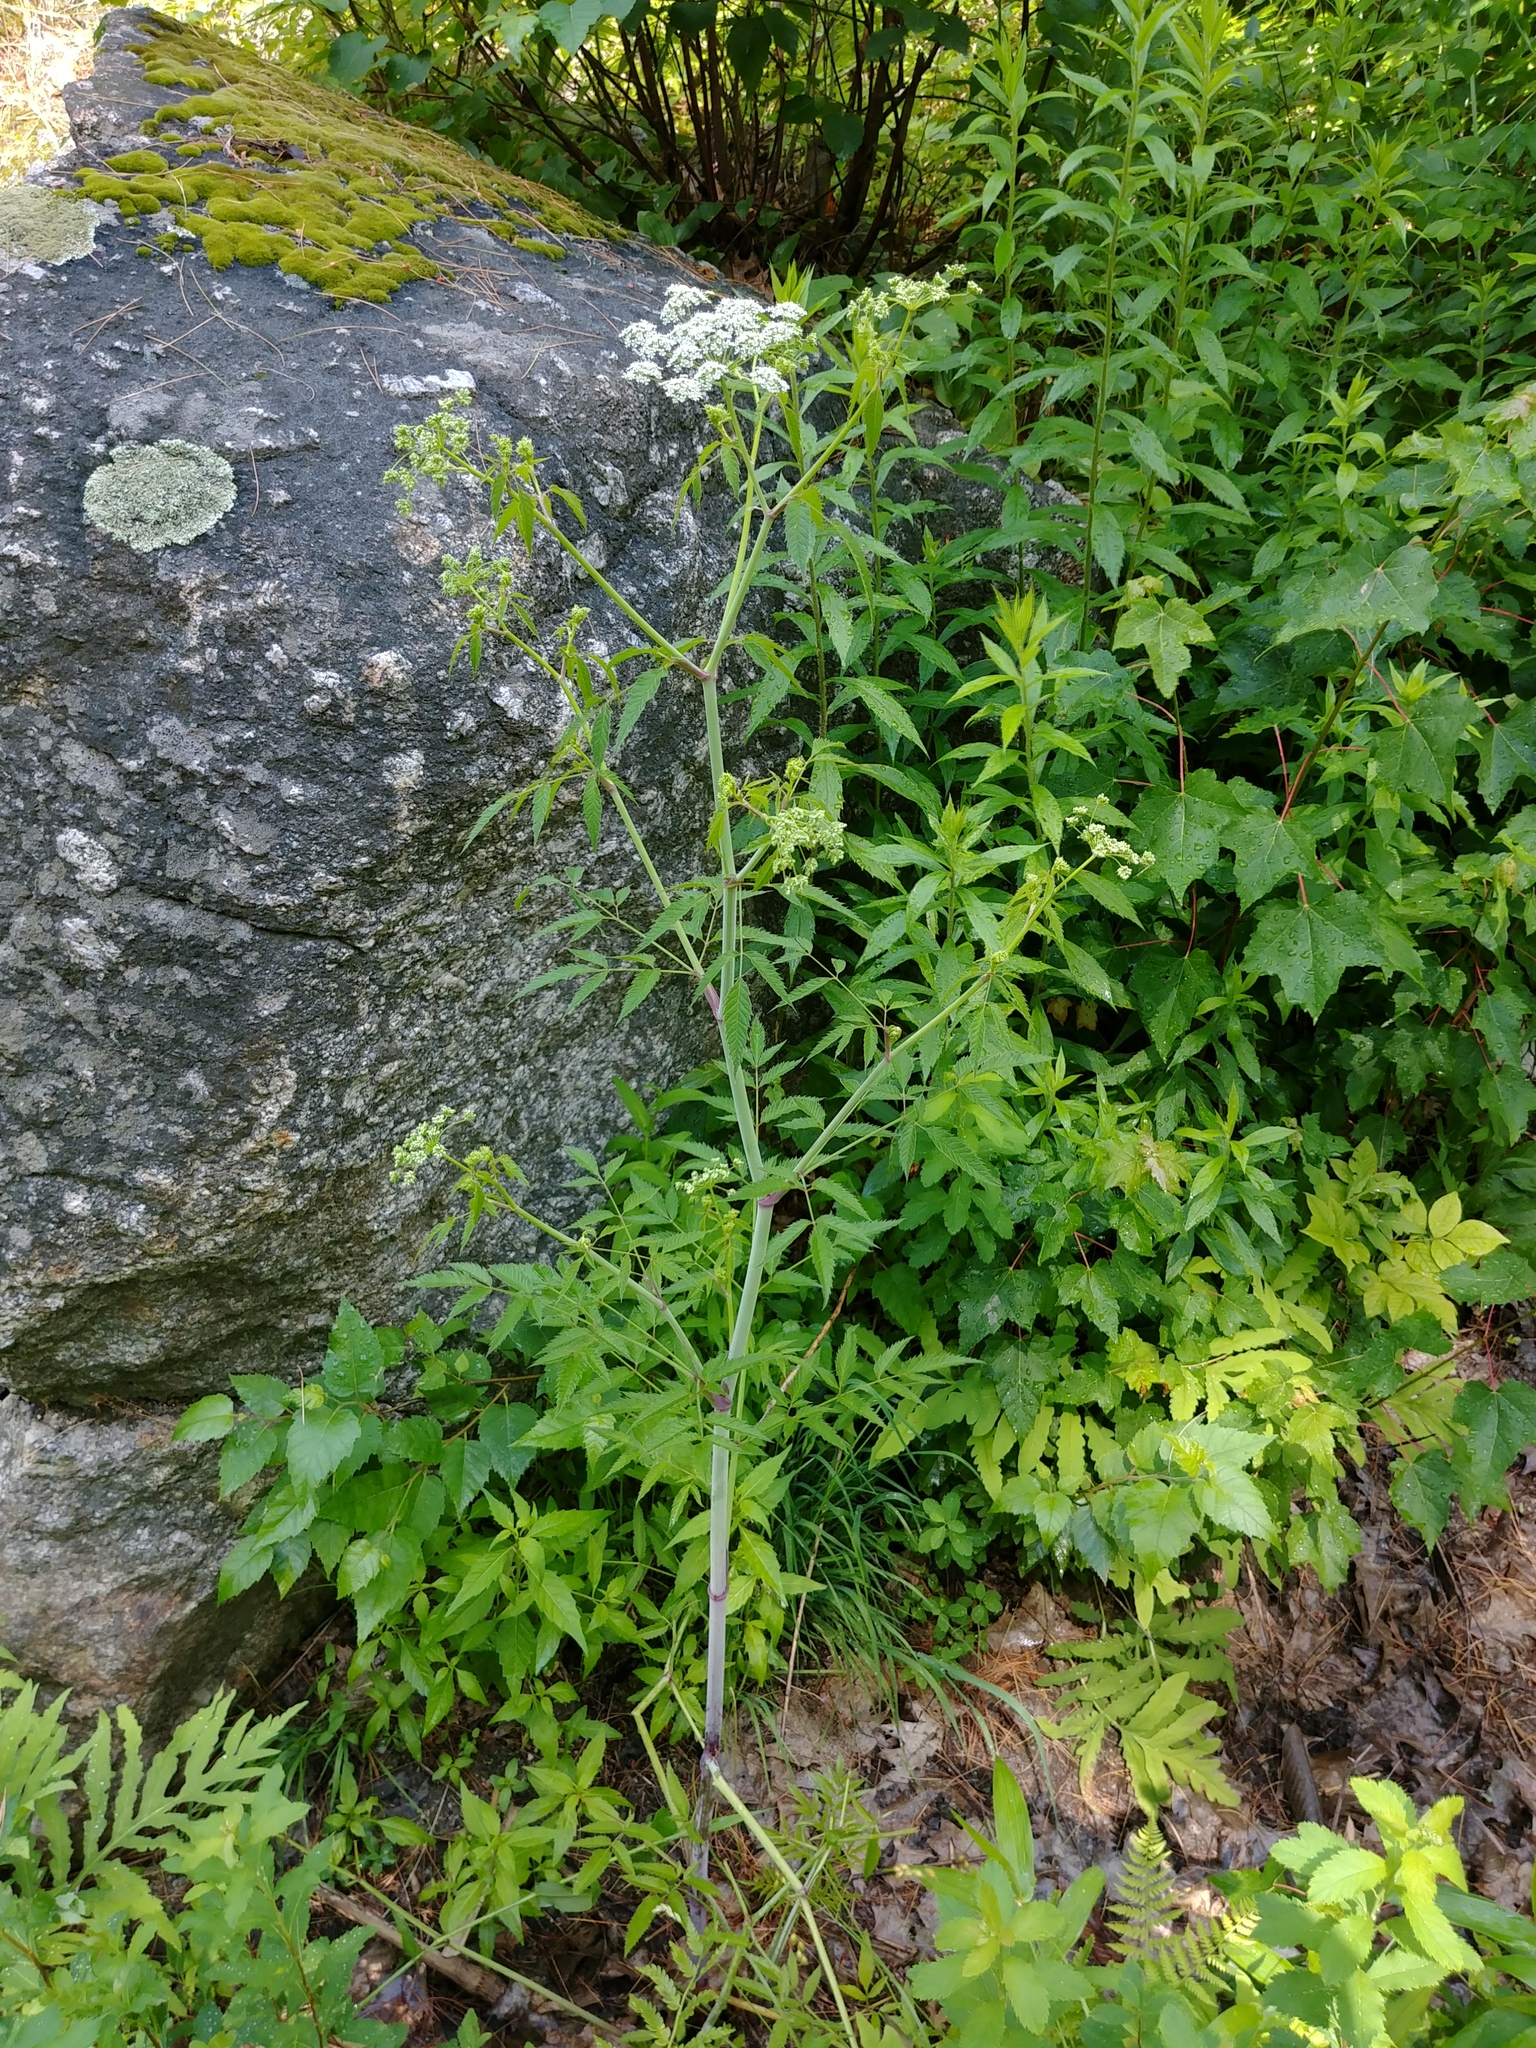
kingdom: Plantae
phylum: Tracheophyta
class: Magnoliopsida
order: Apiales
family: Apiaceae
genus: Cicuta
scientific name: Cicuta maculata
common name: Spotted cowbane
